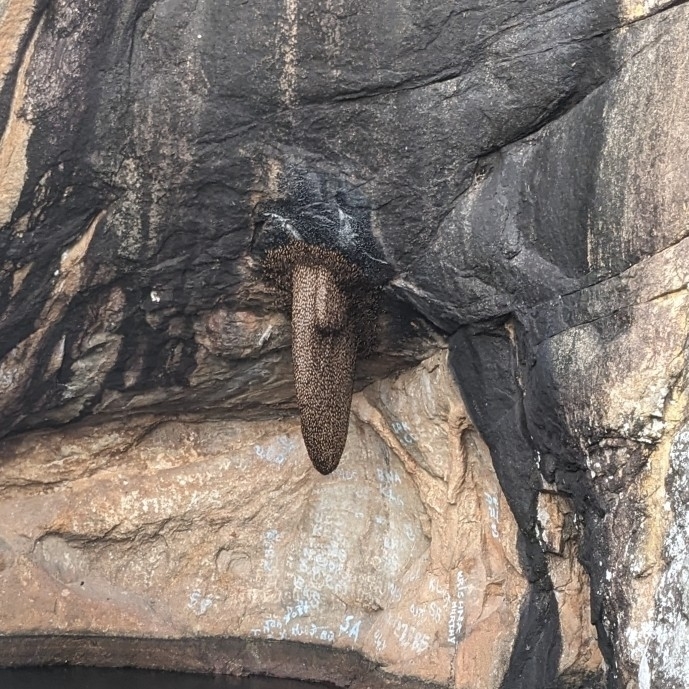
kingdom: Animalia
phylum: Arthropoda
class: Insecta
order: Hymenoptera
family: Apidae
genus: Apis
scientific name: Apis dorsata
